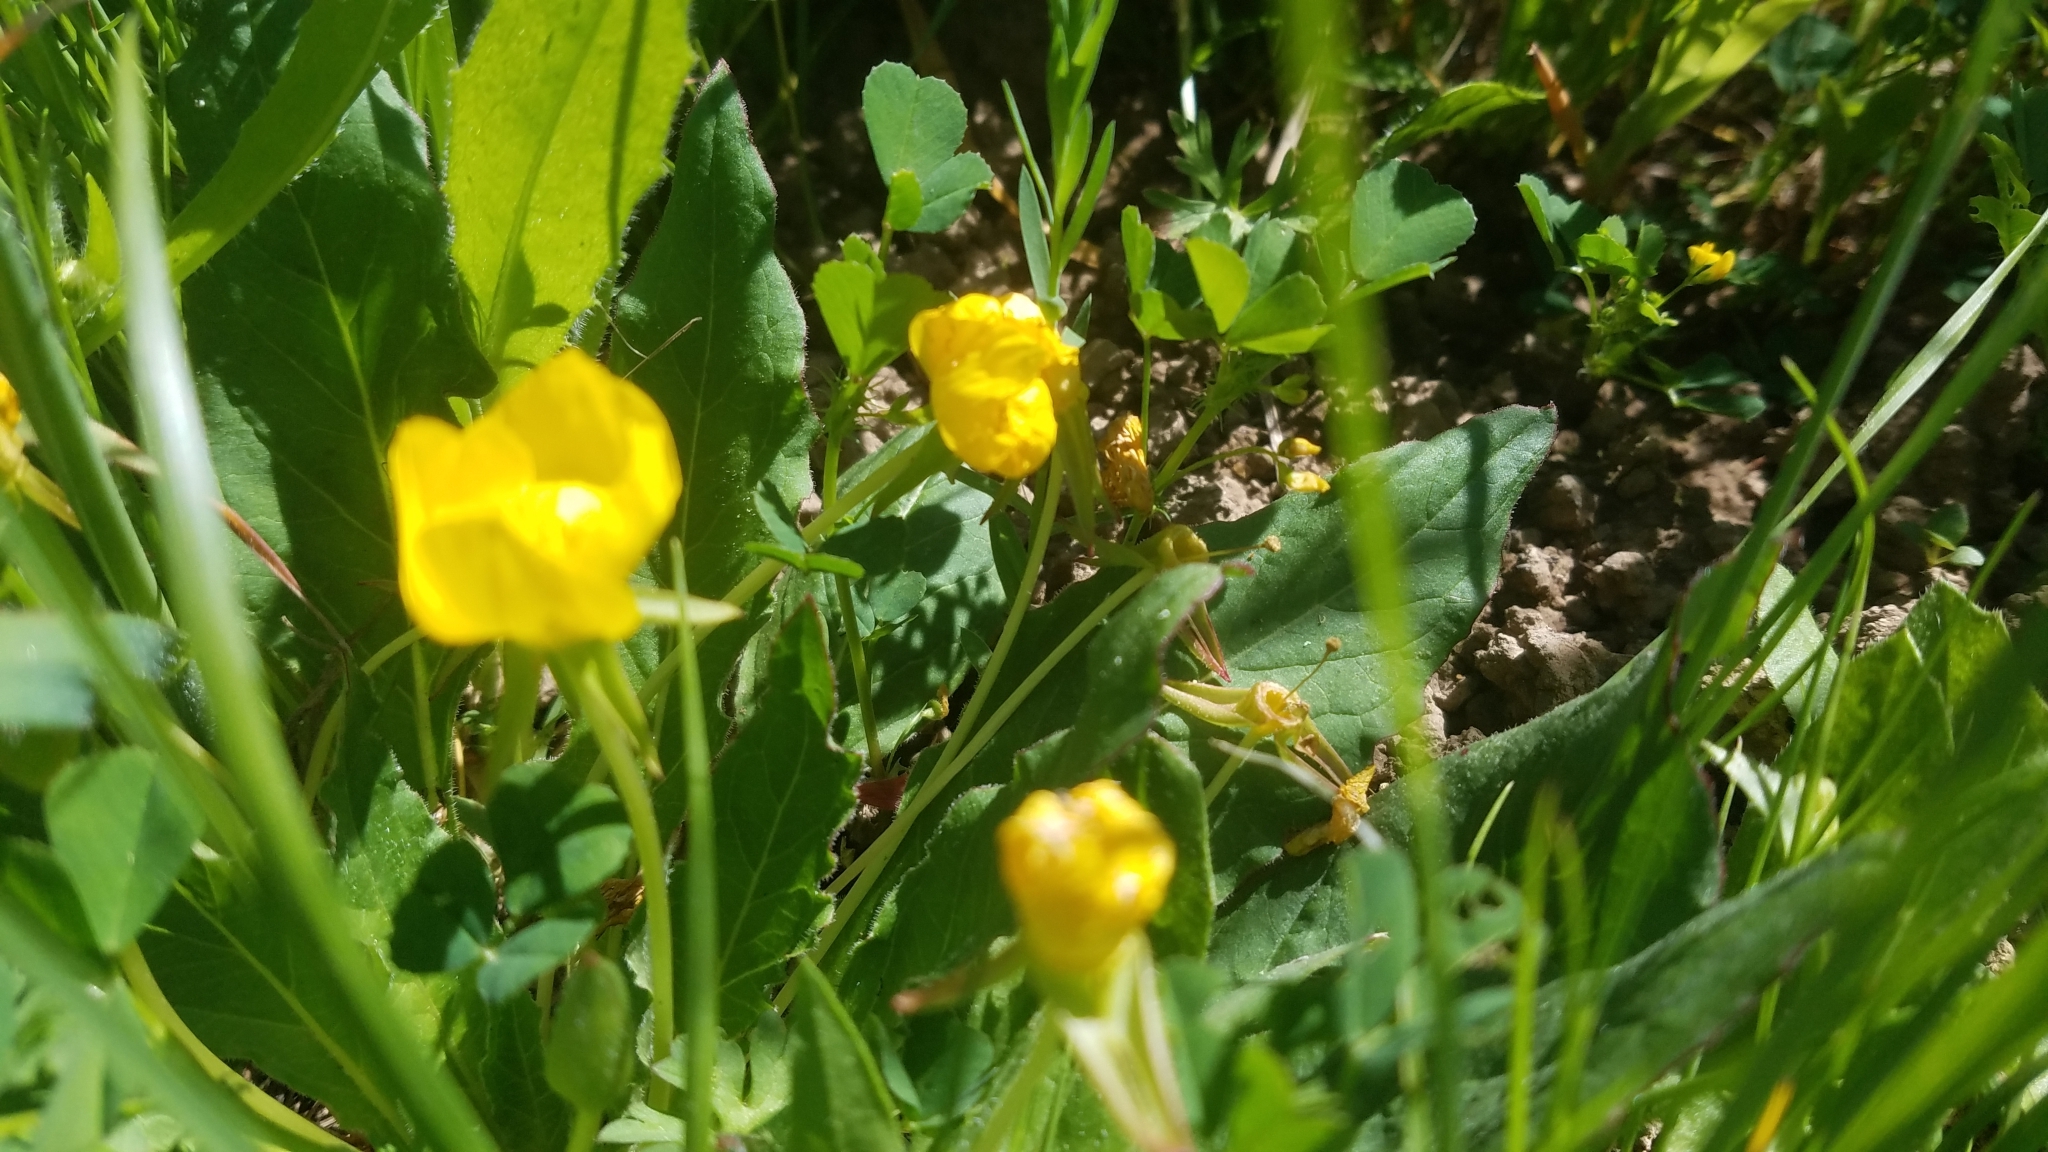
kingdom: Plantae
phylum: Tracheophyta
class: Magnoliopsida
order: Myrtales
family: Onagraceae
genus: Taraxia
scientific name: Taraxia ovata
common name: Goldeneggs
